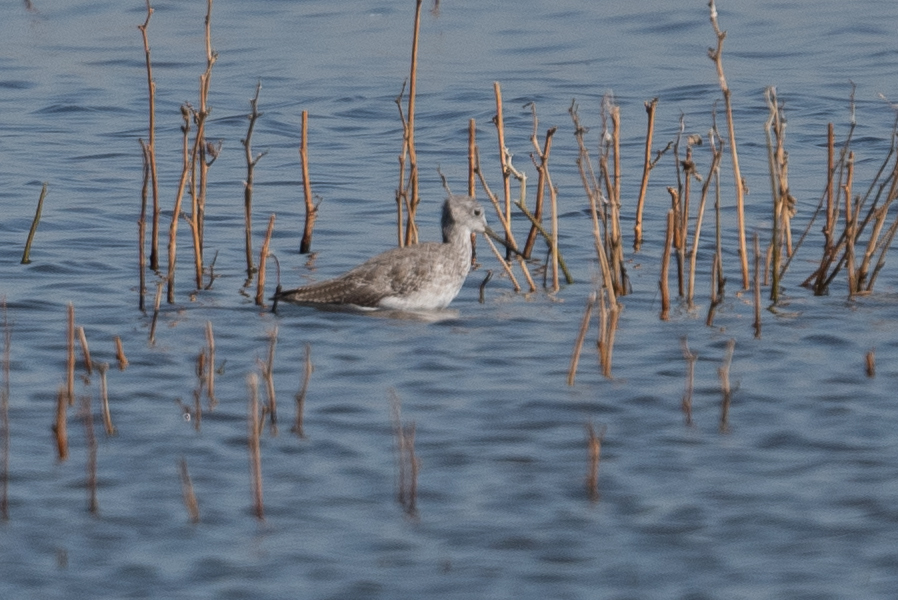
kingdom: Animalia
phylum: Chordata
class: Aves
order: Charadriiformes
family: Scolopacidae
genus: Tringa
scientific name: Tringa melanoleuca
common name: Greater yellowlegs
